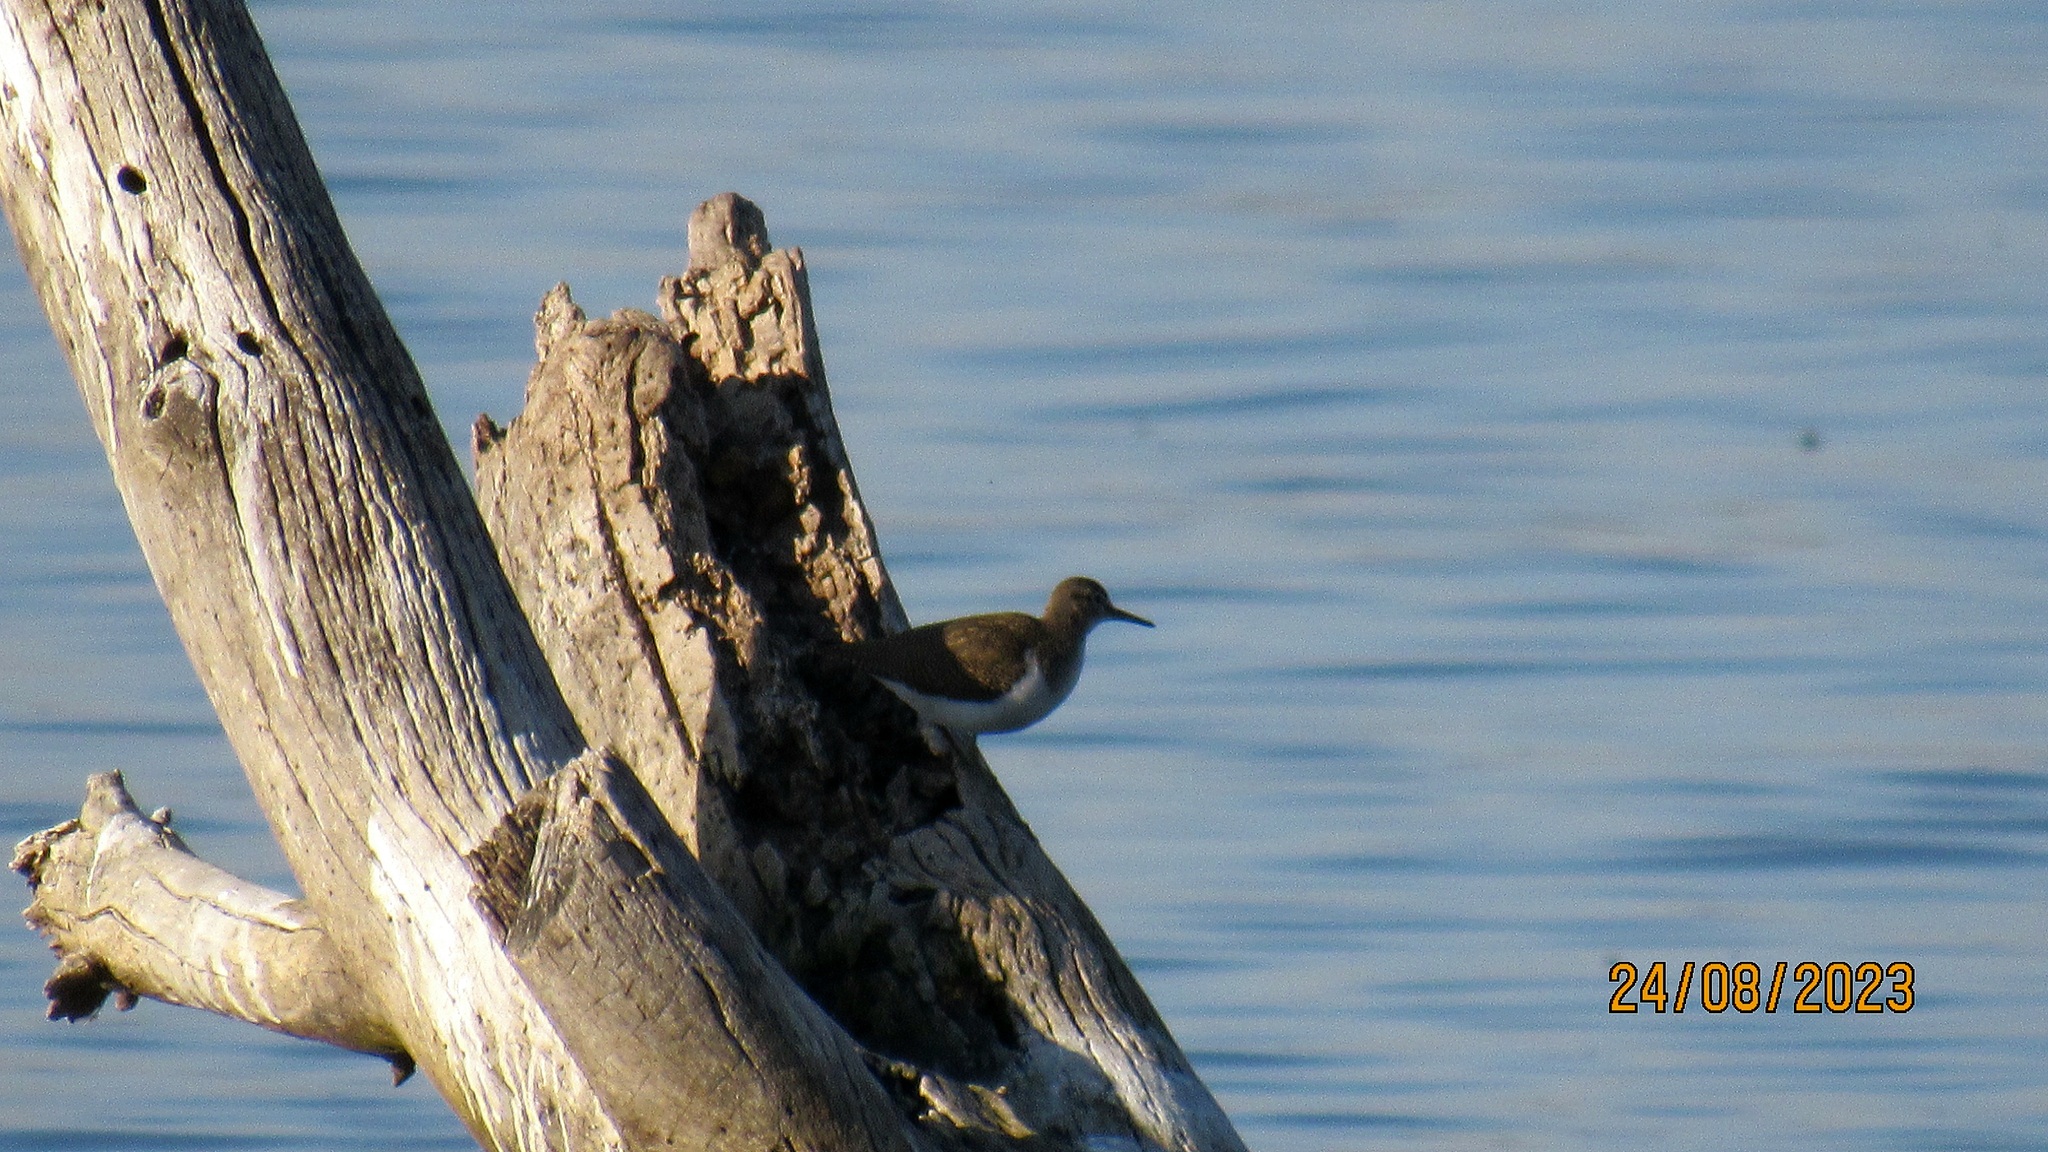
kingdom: Animalia
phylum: Chordata
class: Aves
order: Charadriiformes
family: Scolopacidae
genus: Actitis
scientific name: Actitis hypoleucos
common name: Common sandpiper
